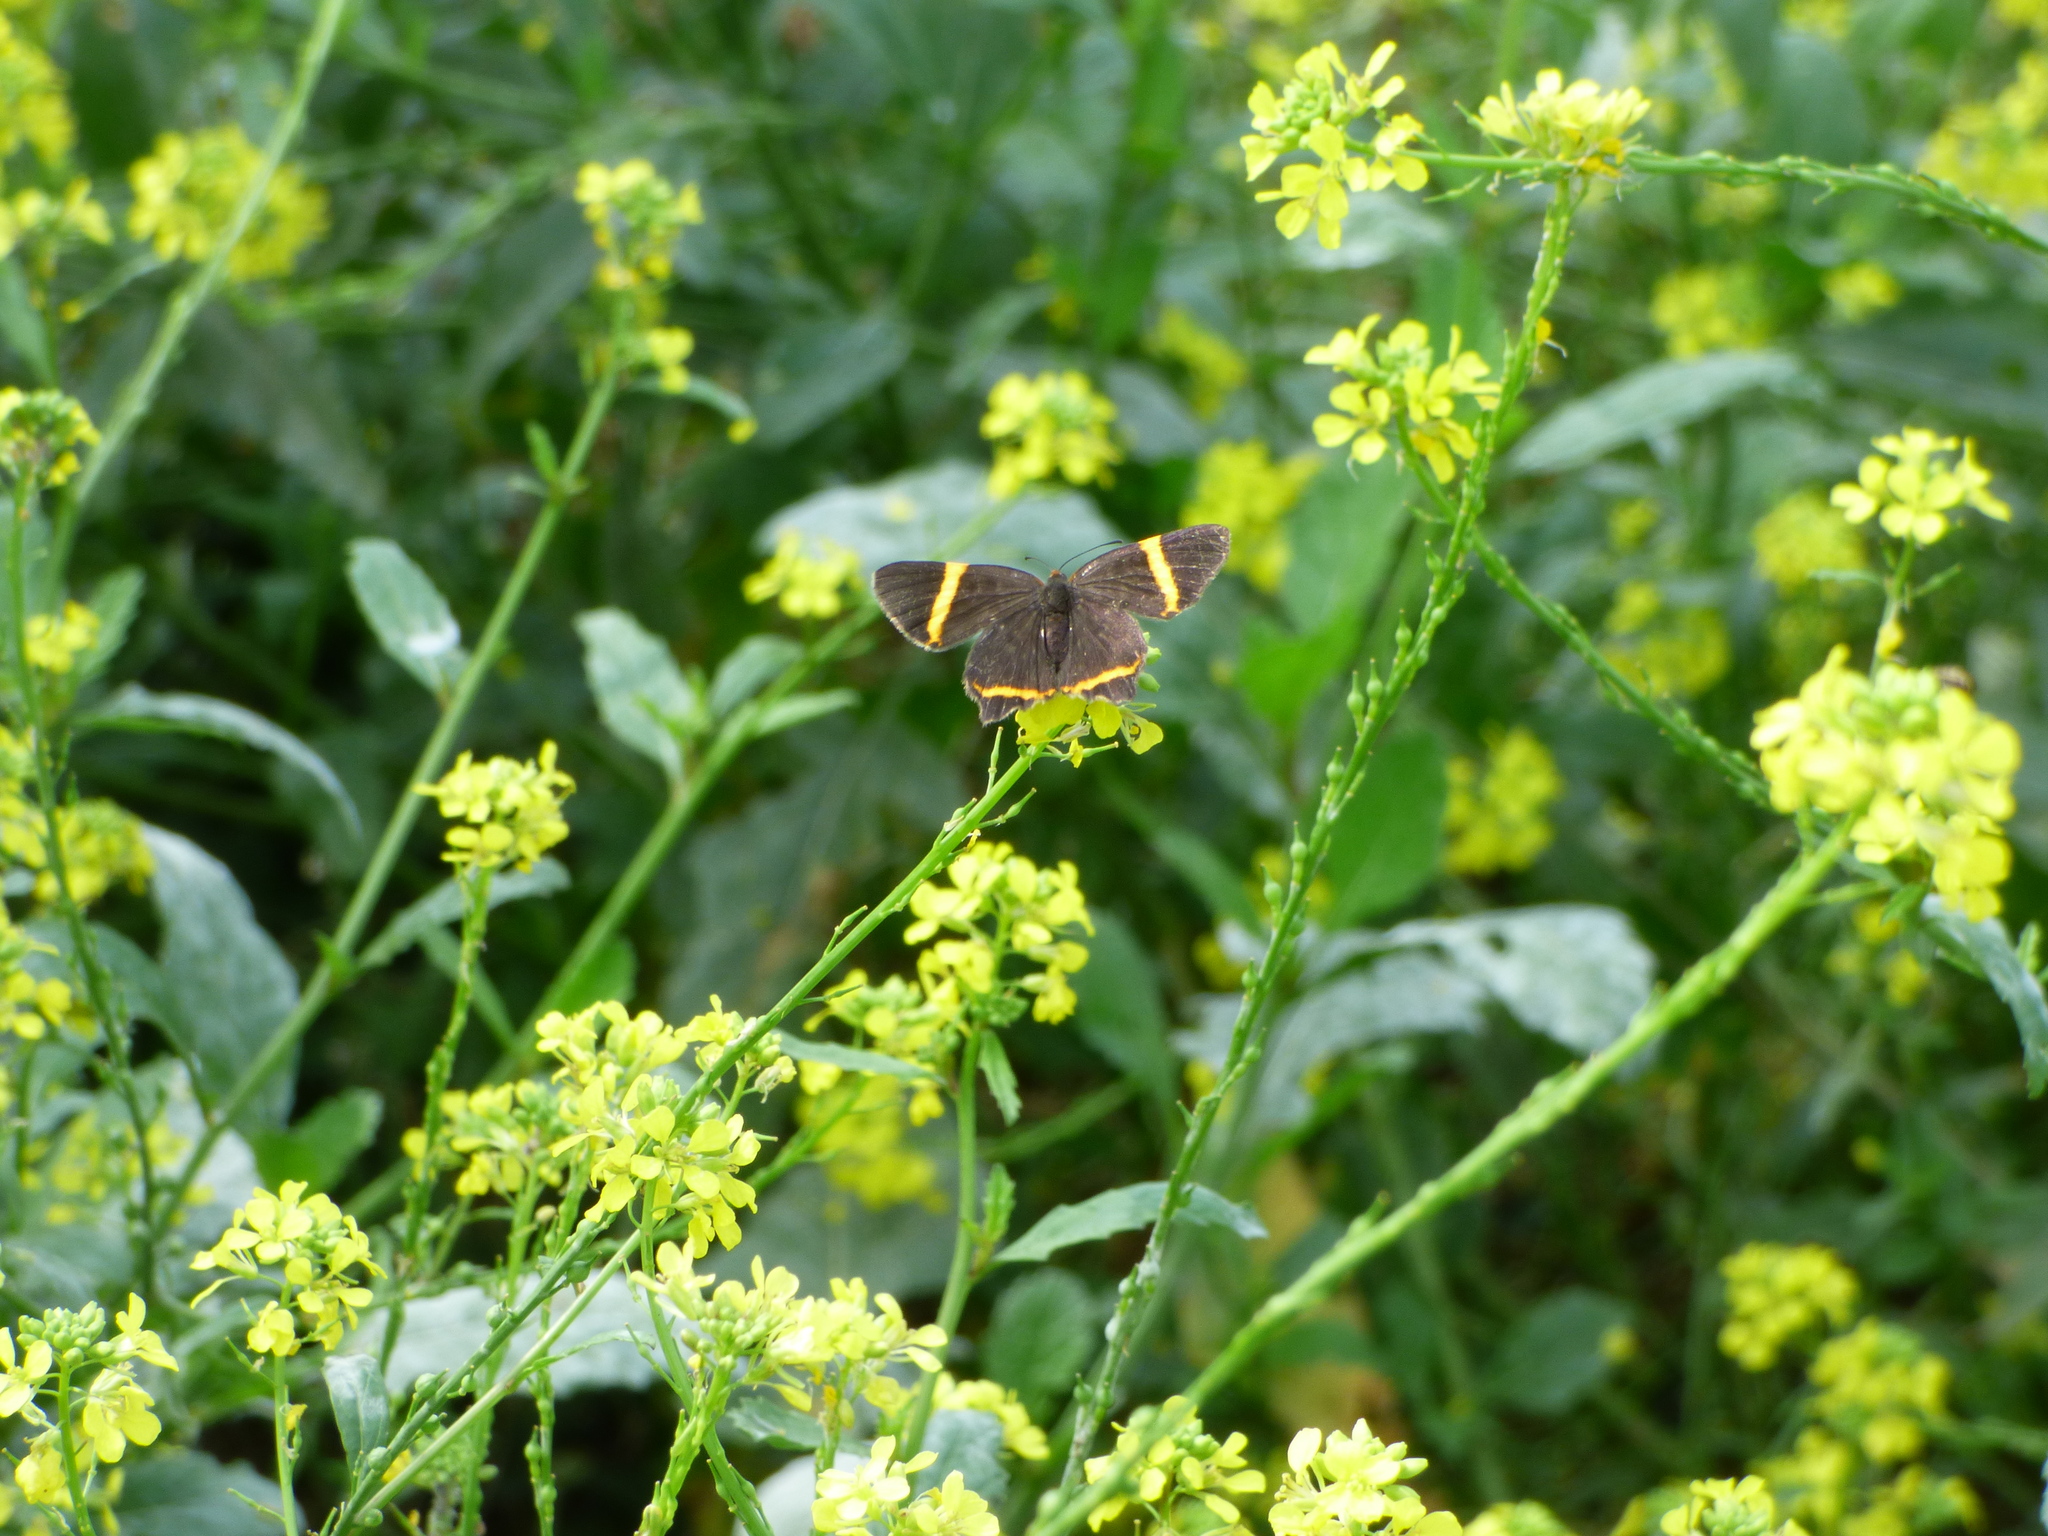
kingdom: Animalia
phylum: Arthropoda
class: Insecta
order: Lepidoptera
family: Riodinidae
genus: Riodina
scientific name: Riodina lysippoides
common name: Little dancer metalmark
